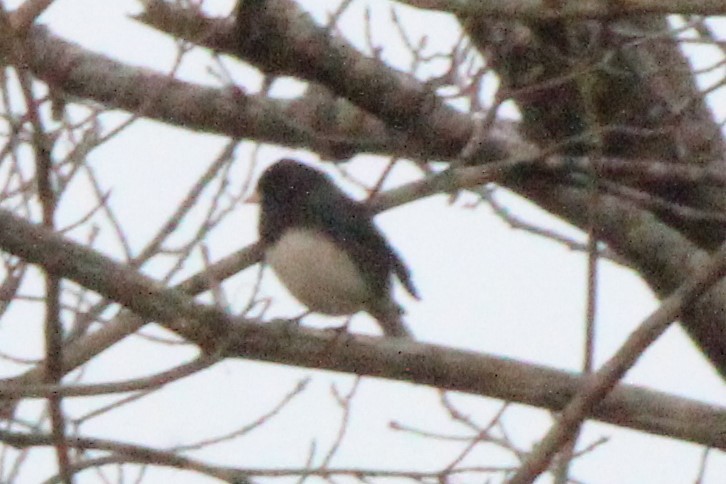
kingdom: Animalia
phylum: Chordata
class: Aves
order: Passeriformes
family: Passerellidae
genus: Junco
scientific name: Junco hyemalis
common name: Dark-eyed junco
